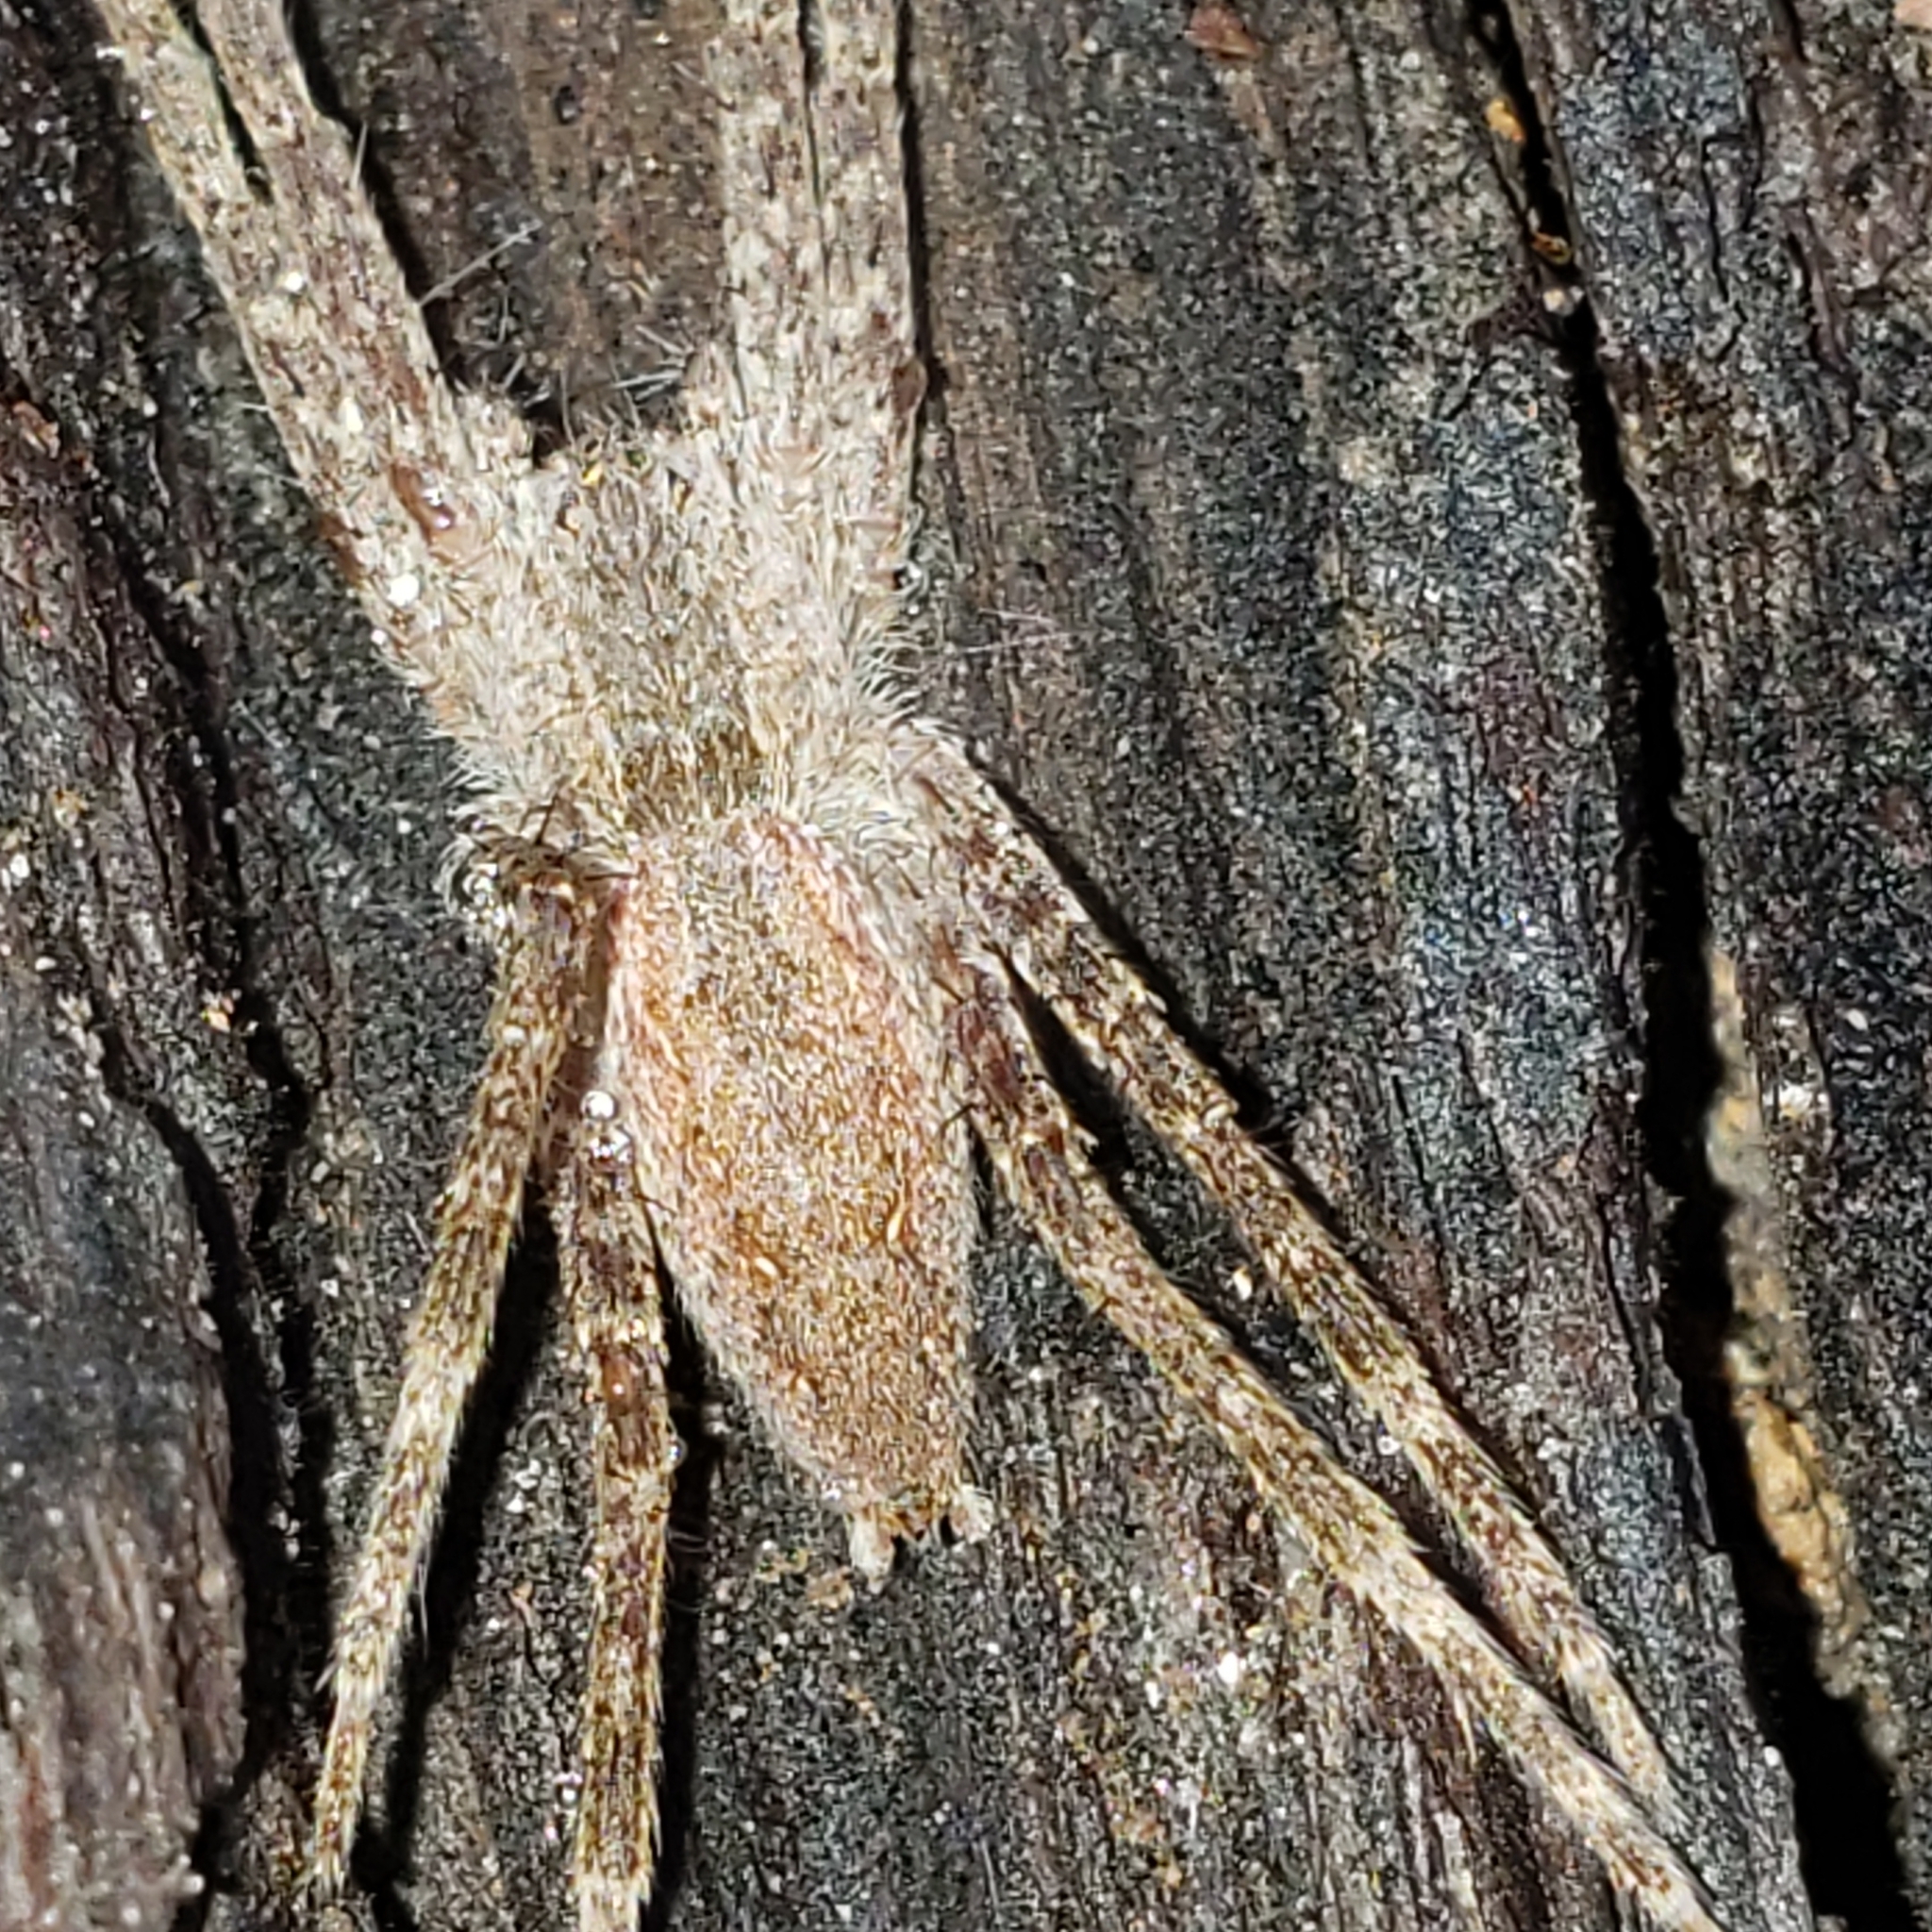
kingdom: Animalia
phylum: Arthropoda
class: Arachnida
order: Araneae
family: Pisauridae
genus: Pisaurina
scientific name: Pisaurina mira
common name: American nursery web spider
